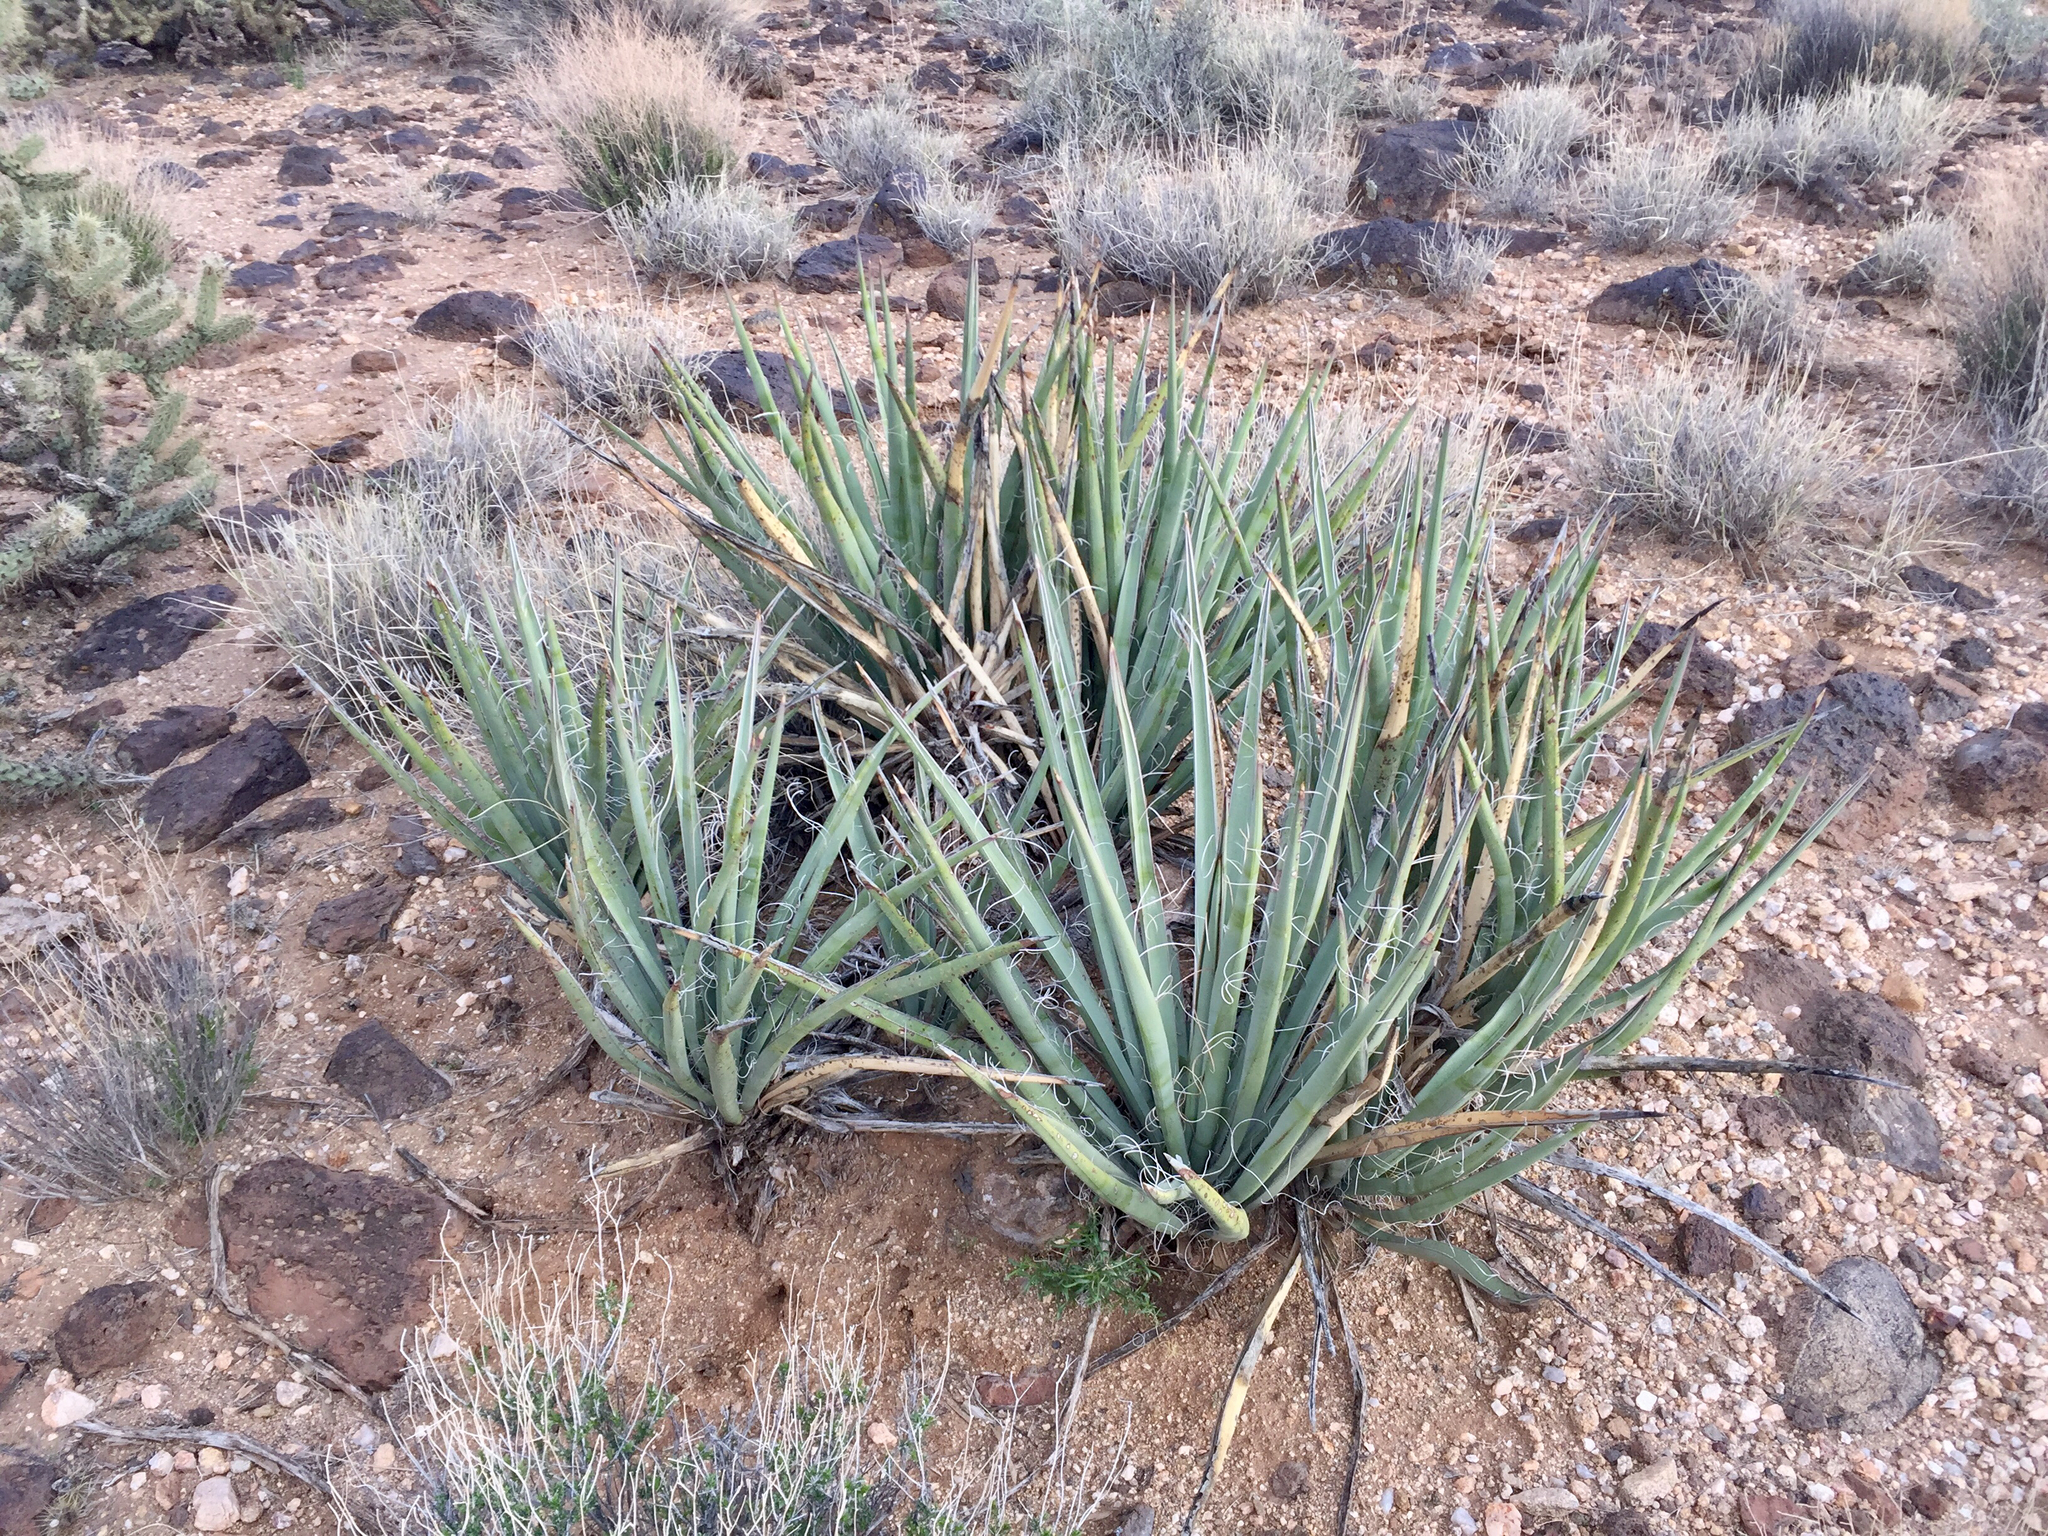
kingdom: Plantae
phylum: Tracheophyta
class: Liliopsida
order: Asparagales
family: Asparagaceae
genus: Yucca
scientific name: Yucca baccata
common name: Banana yucca
